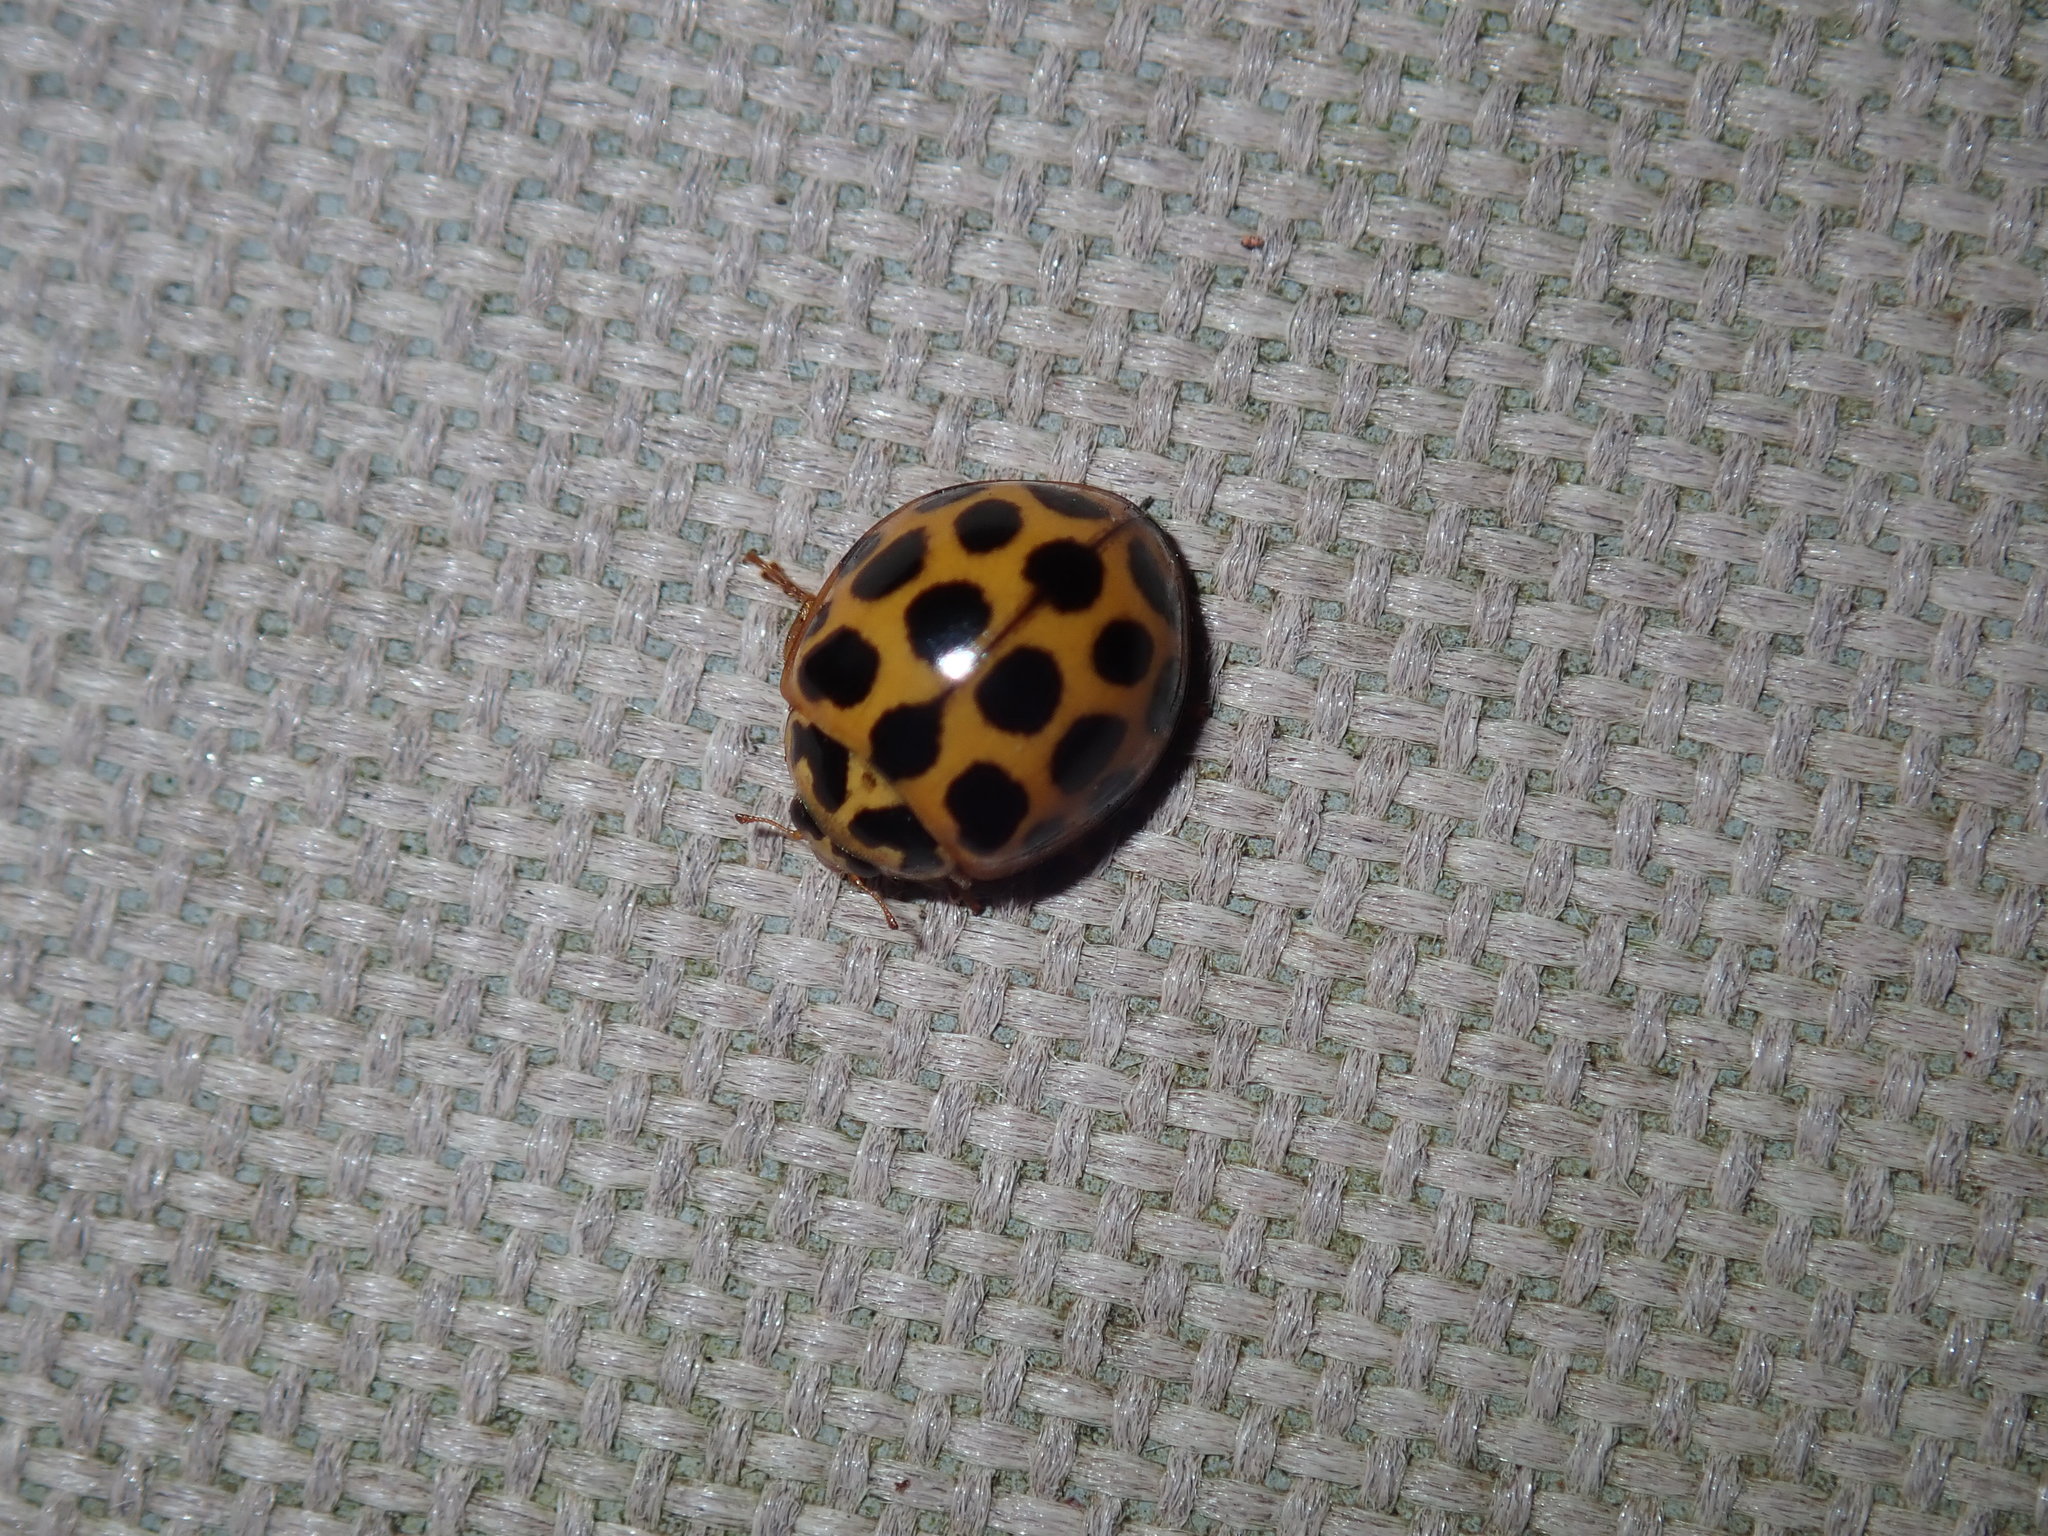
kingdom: Animalia
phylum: Arthropoda
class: Insecta
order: Coleoptera
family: Coccinellidae
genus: Harmonia
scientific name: Harmonia conformis
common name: Common spotted ladybird beetle
